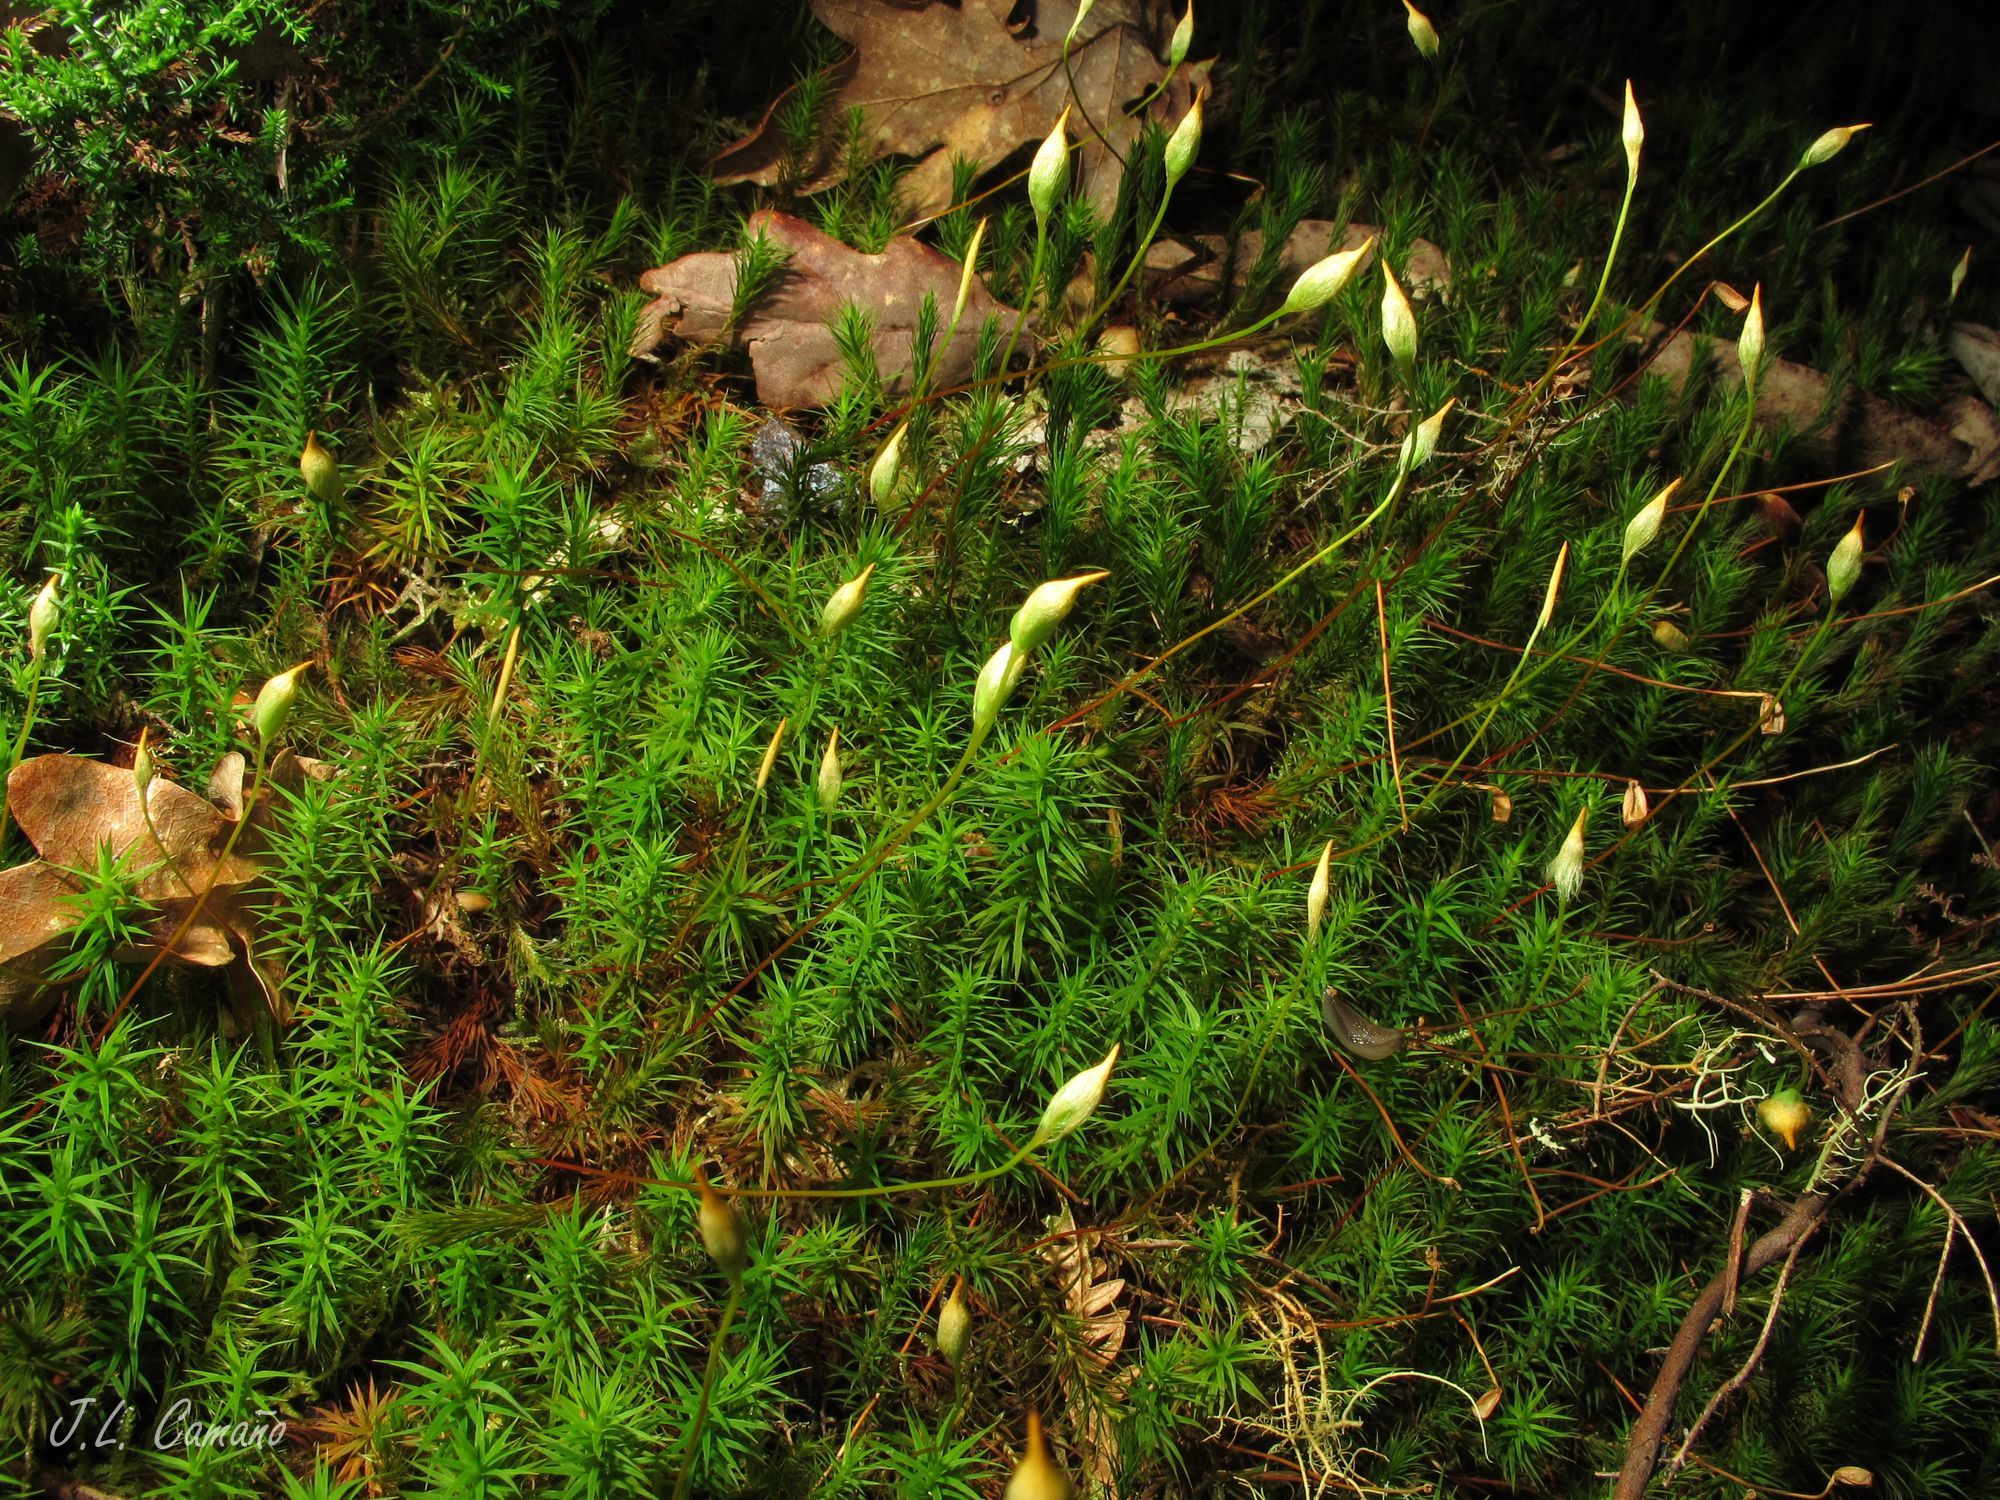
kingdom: Plantae
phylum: Bryophyta
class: Polytrichopsida
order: Polytrichales
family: Polytrichaceae
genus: Polytrichum
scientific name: Polytrichum formosum
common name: Bank haircap moss
